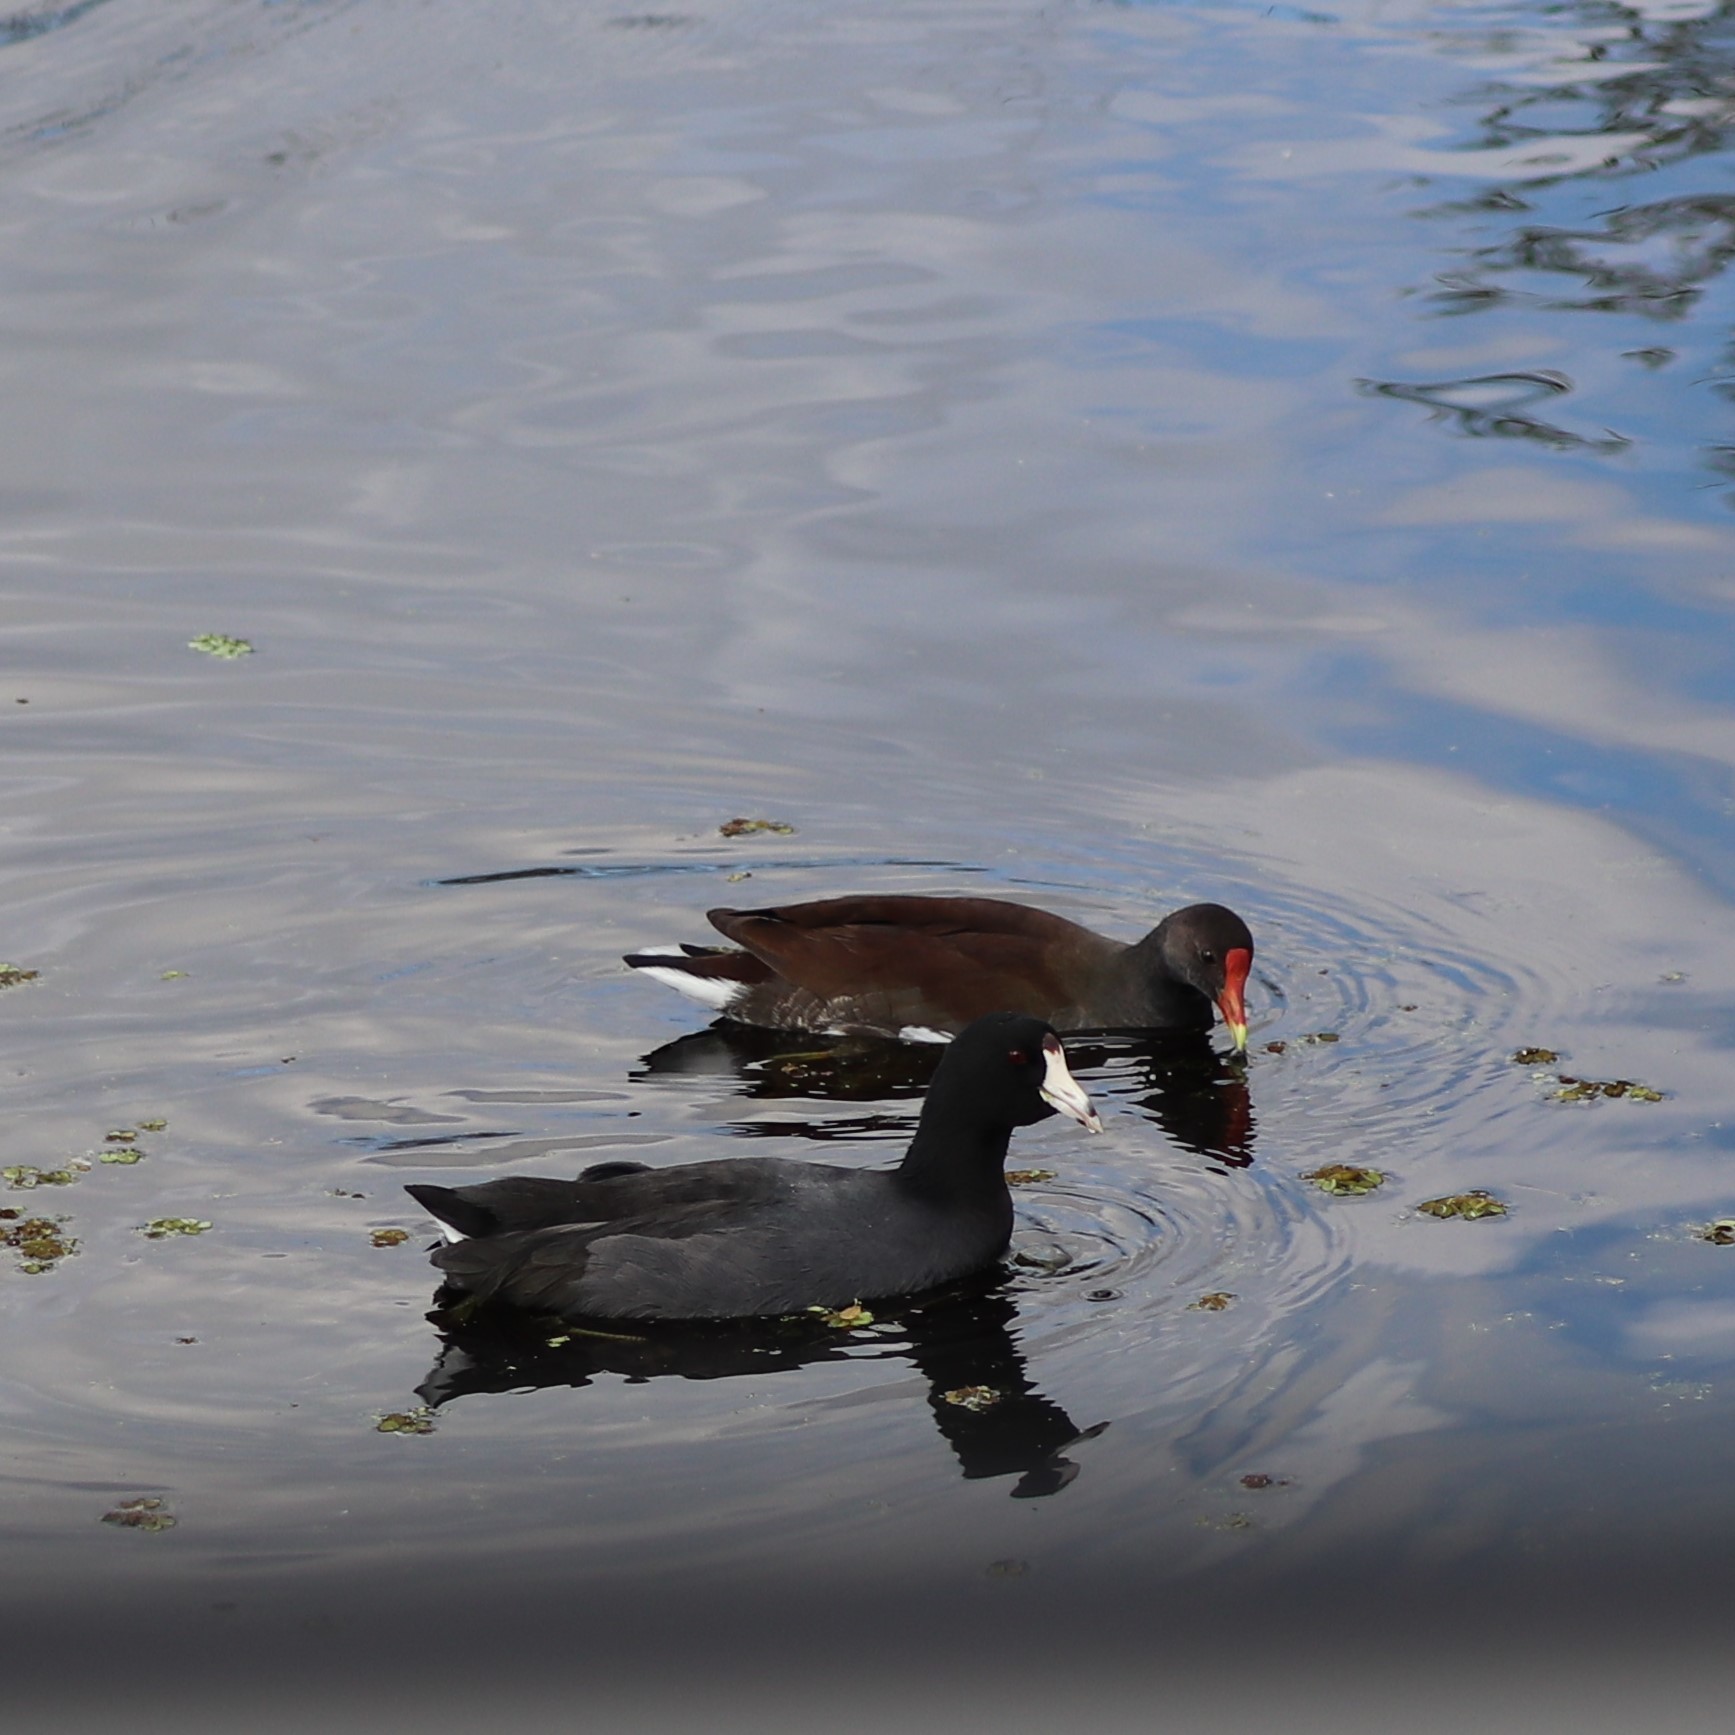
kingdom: Animalia
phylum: Chordata
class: Aves
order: Gruiformes
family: Rallidae
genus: Fulica
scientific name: Fulica americana
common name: American coot
